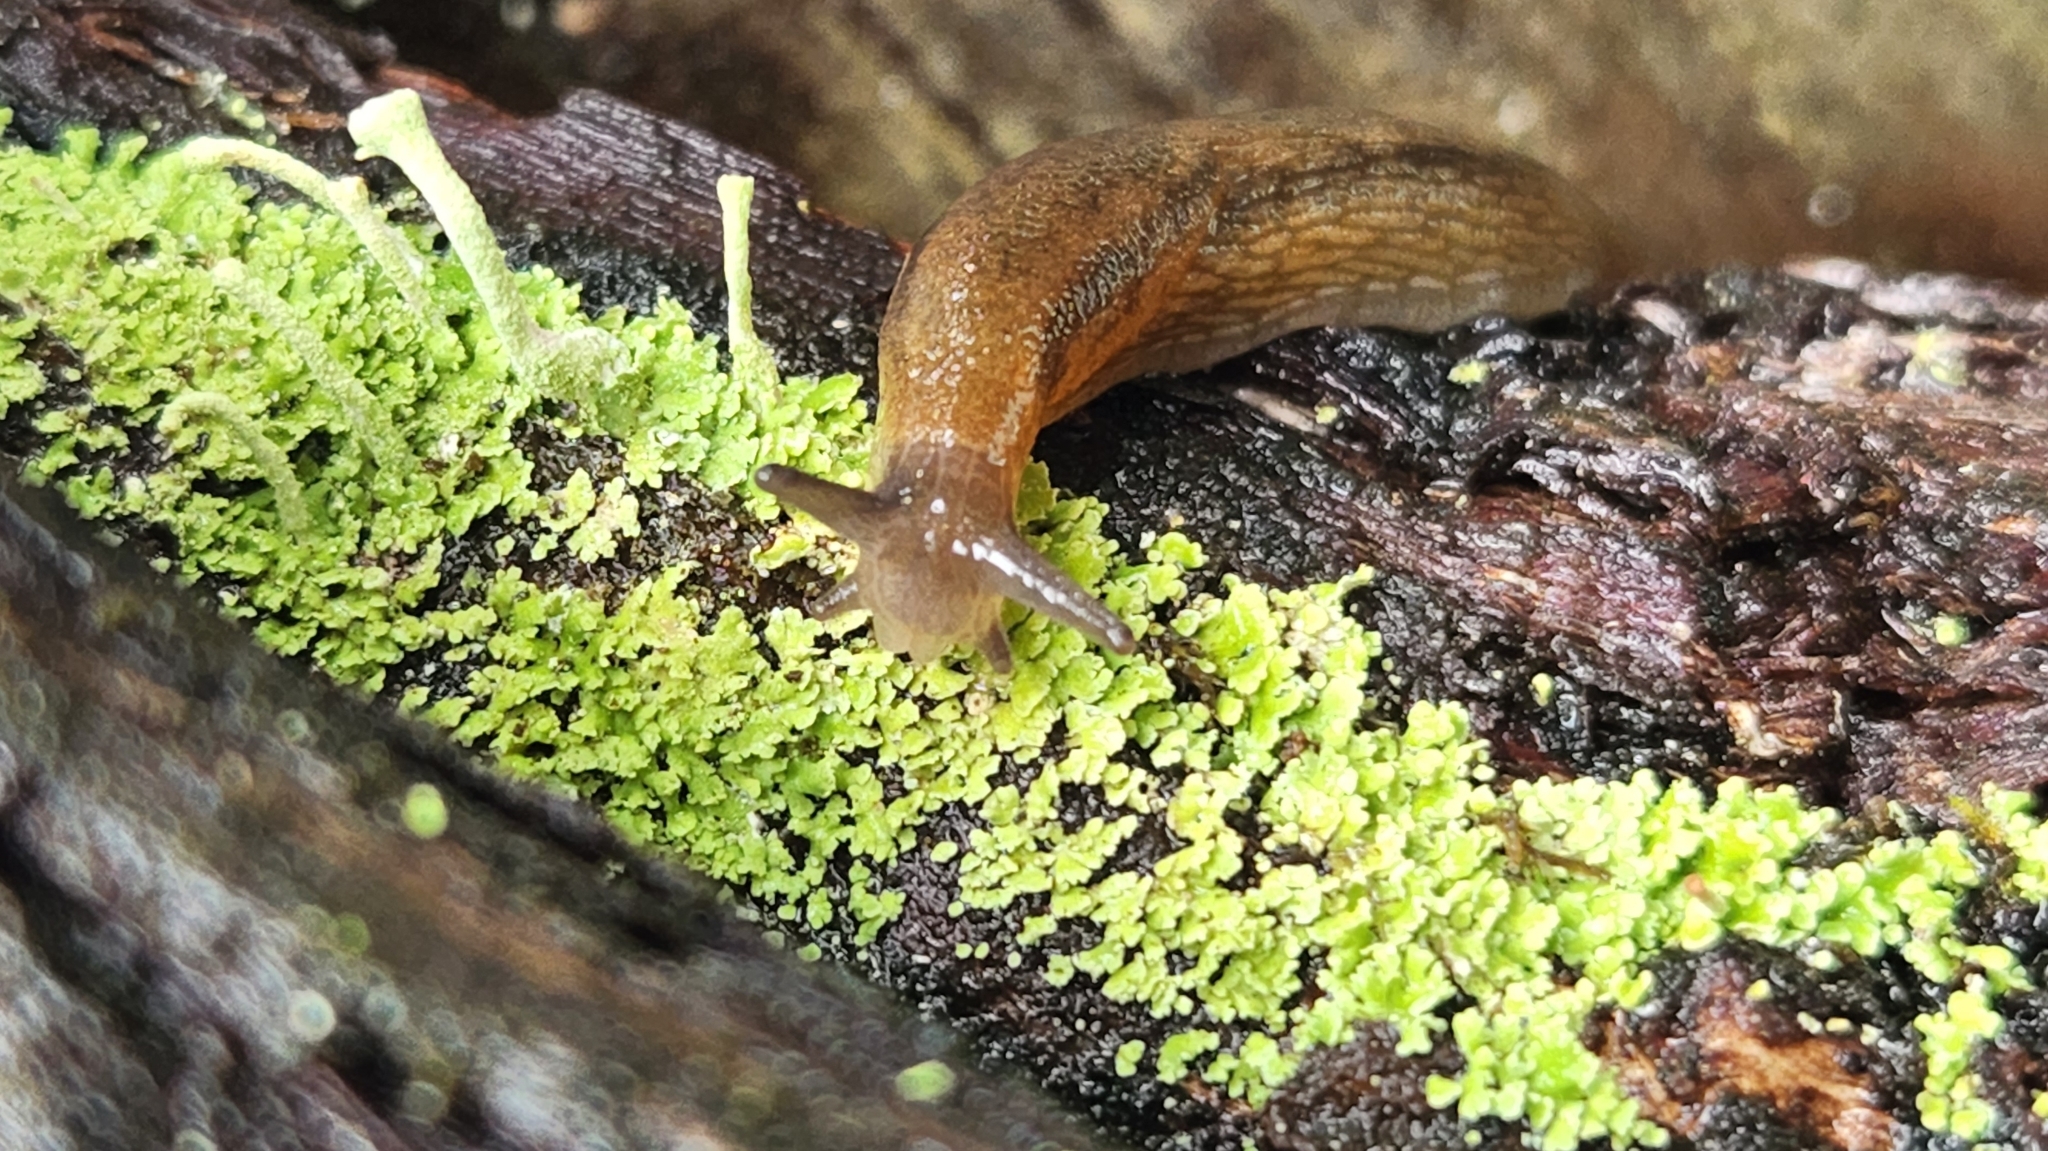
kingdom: Animalia
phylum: Mollusca
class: Gastropoda
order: Stylommatophora
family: Arionidae
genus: Mesarion
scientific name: Mesarion
